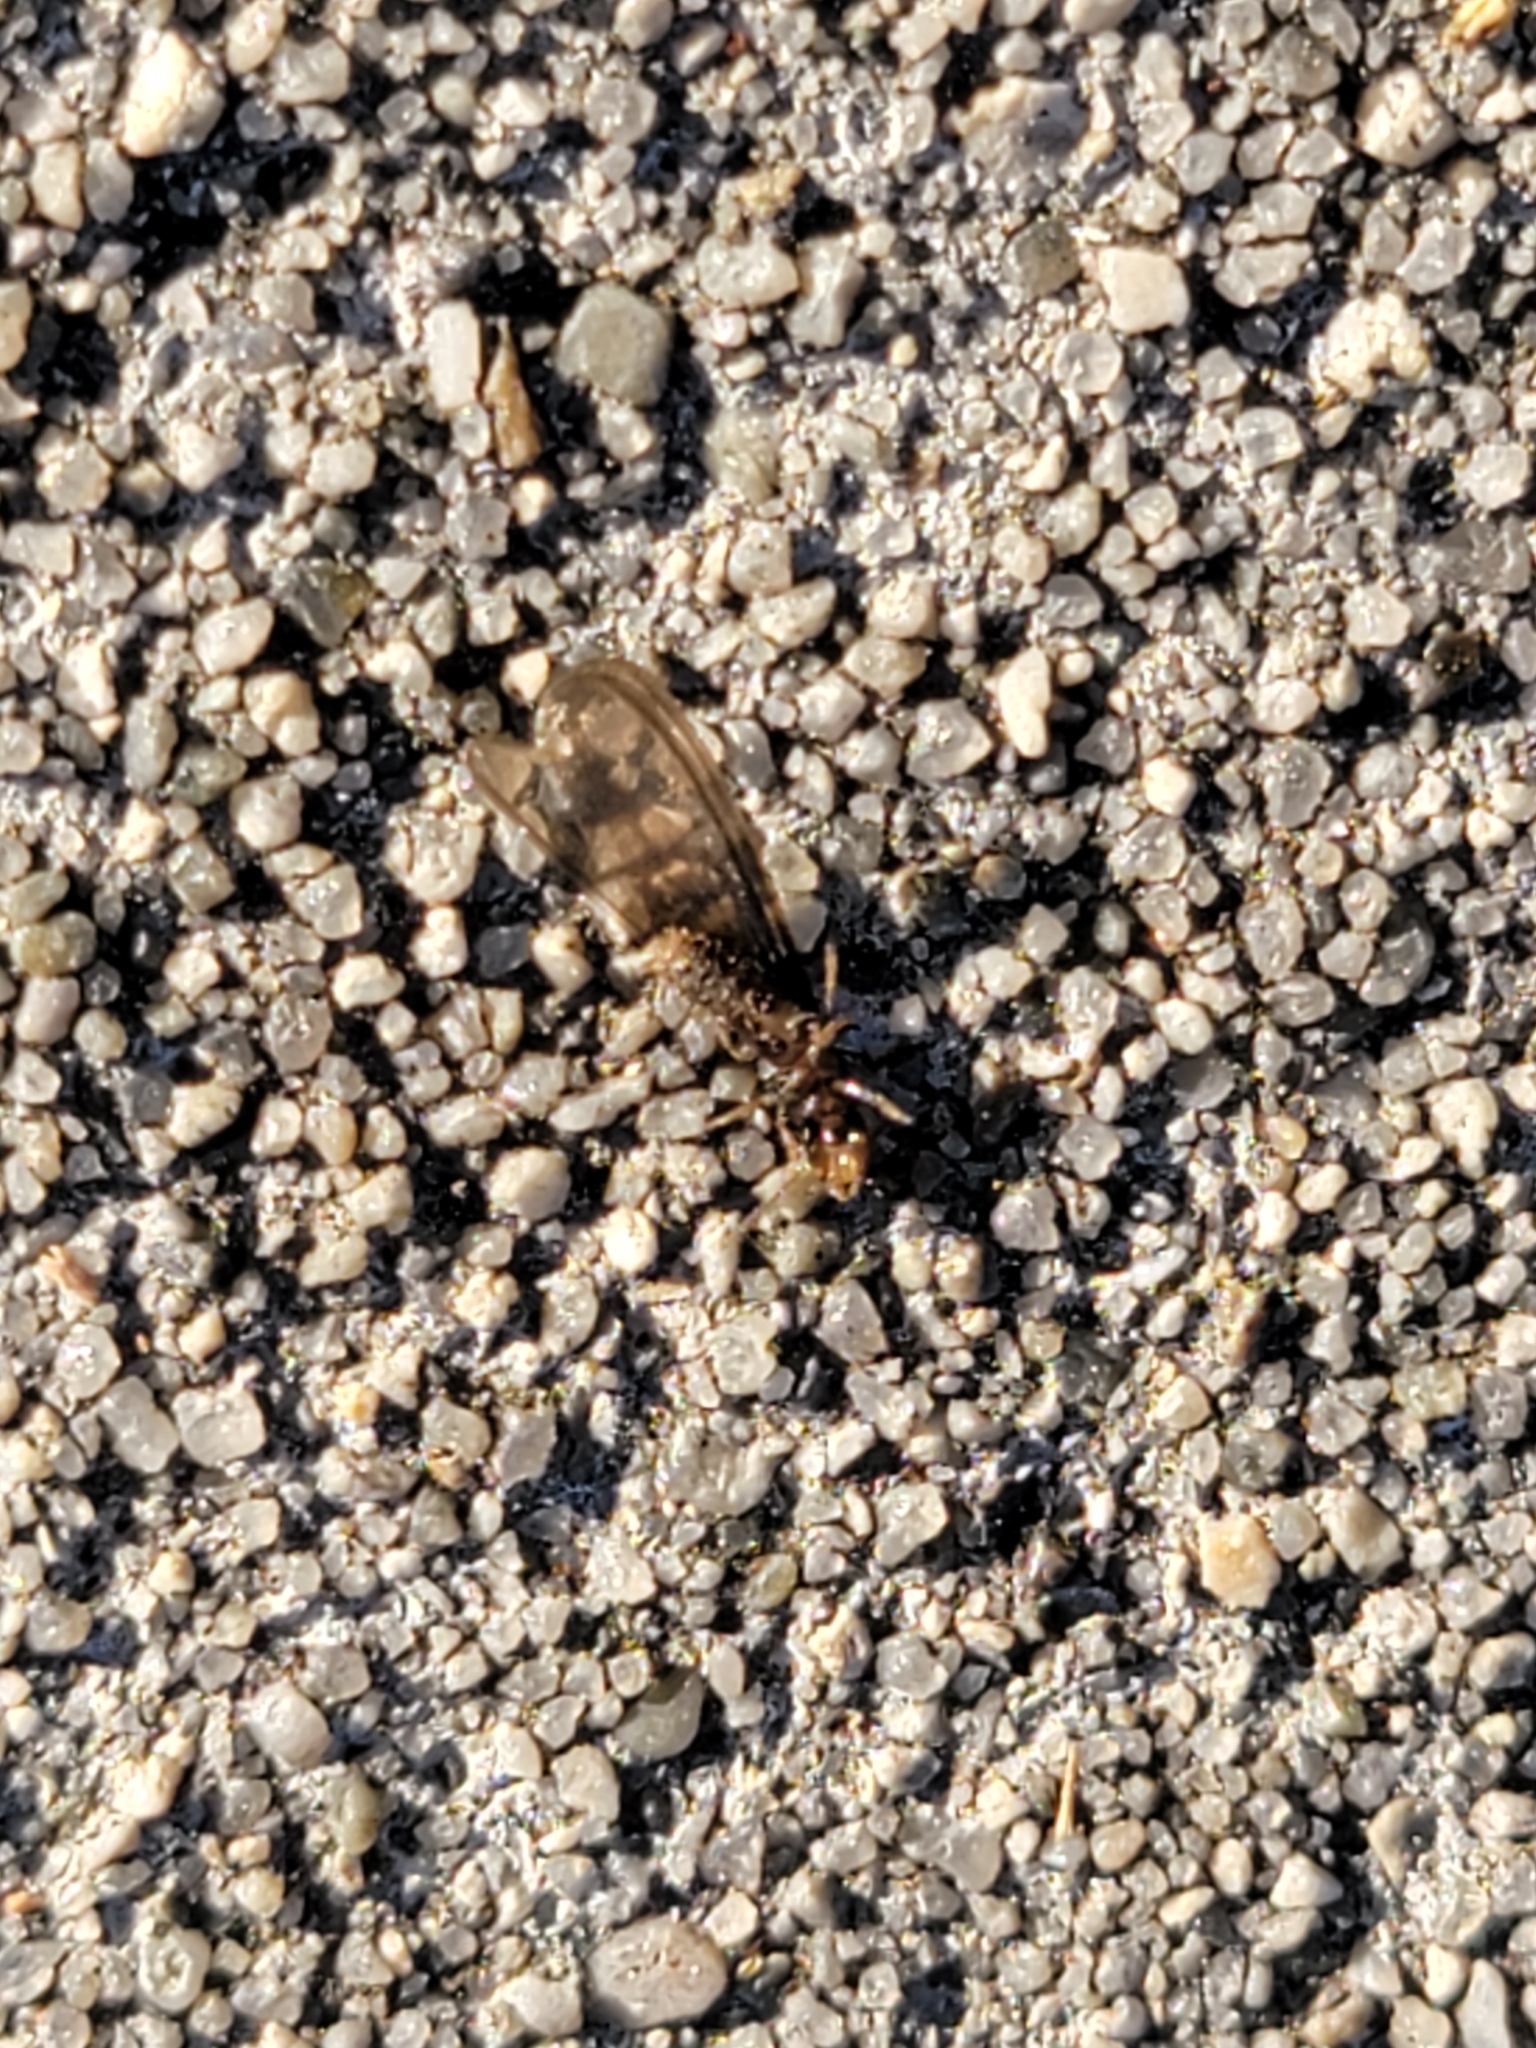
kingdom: Animalia
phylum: Arthropoda
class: Insecta
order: Blattodea
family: Rhinotermitidae
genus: Reticulitermes
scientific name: Reticulitermes hesperus
